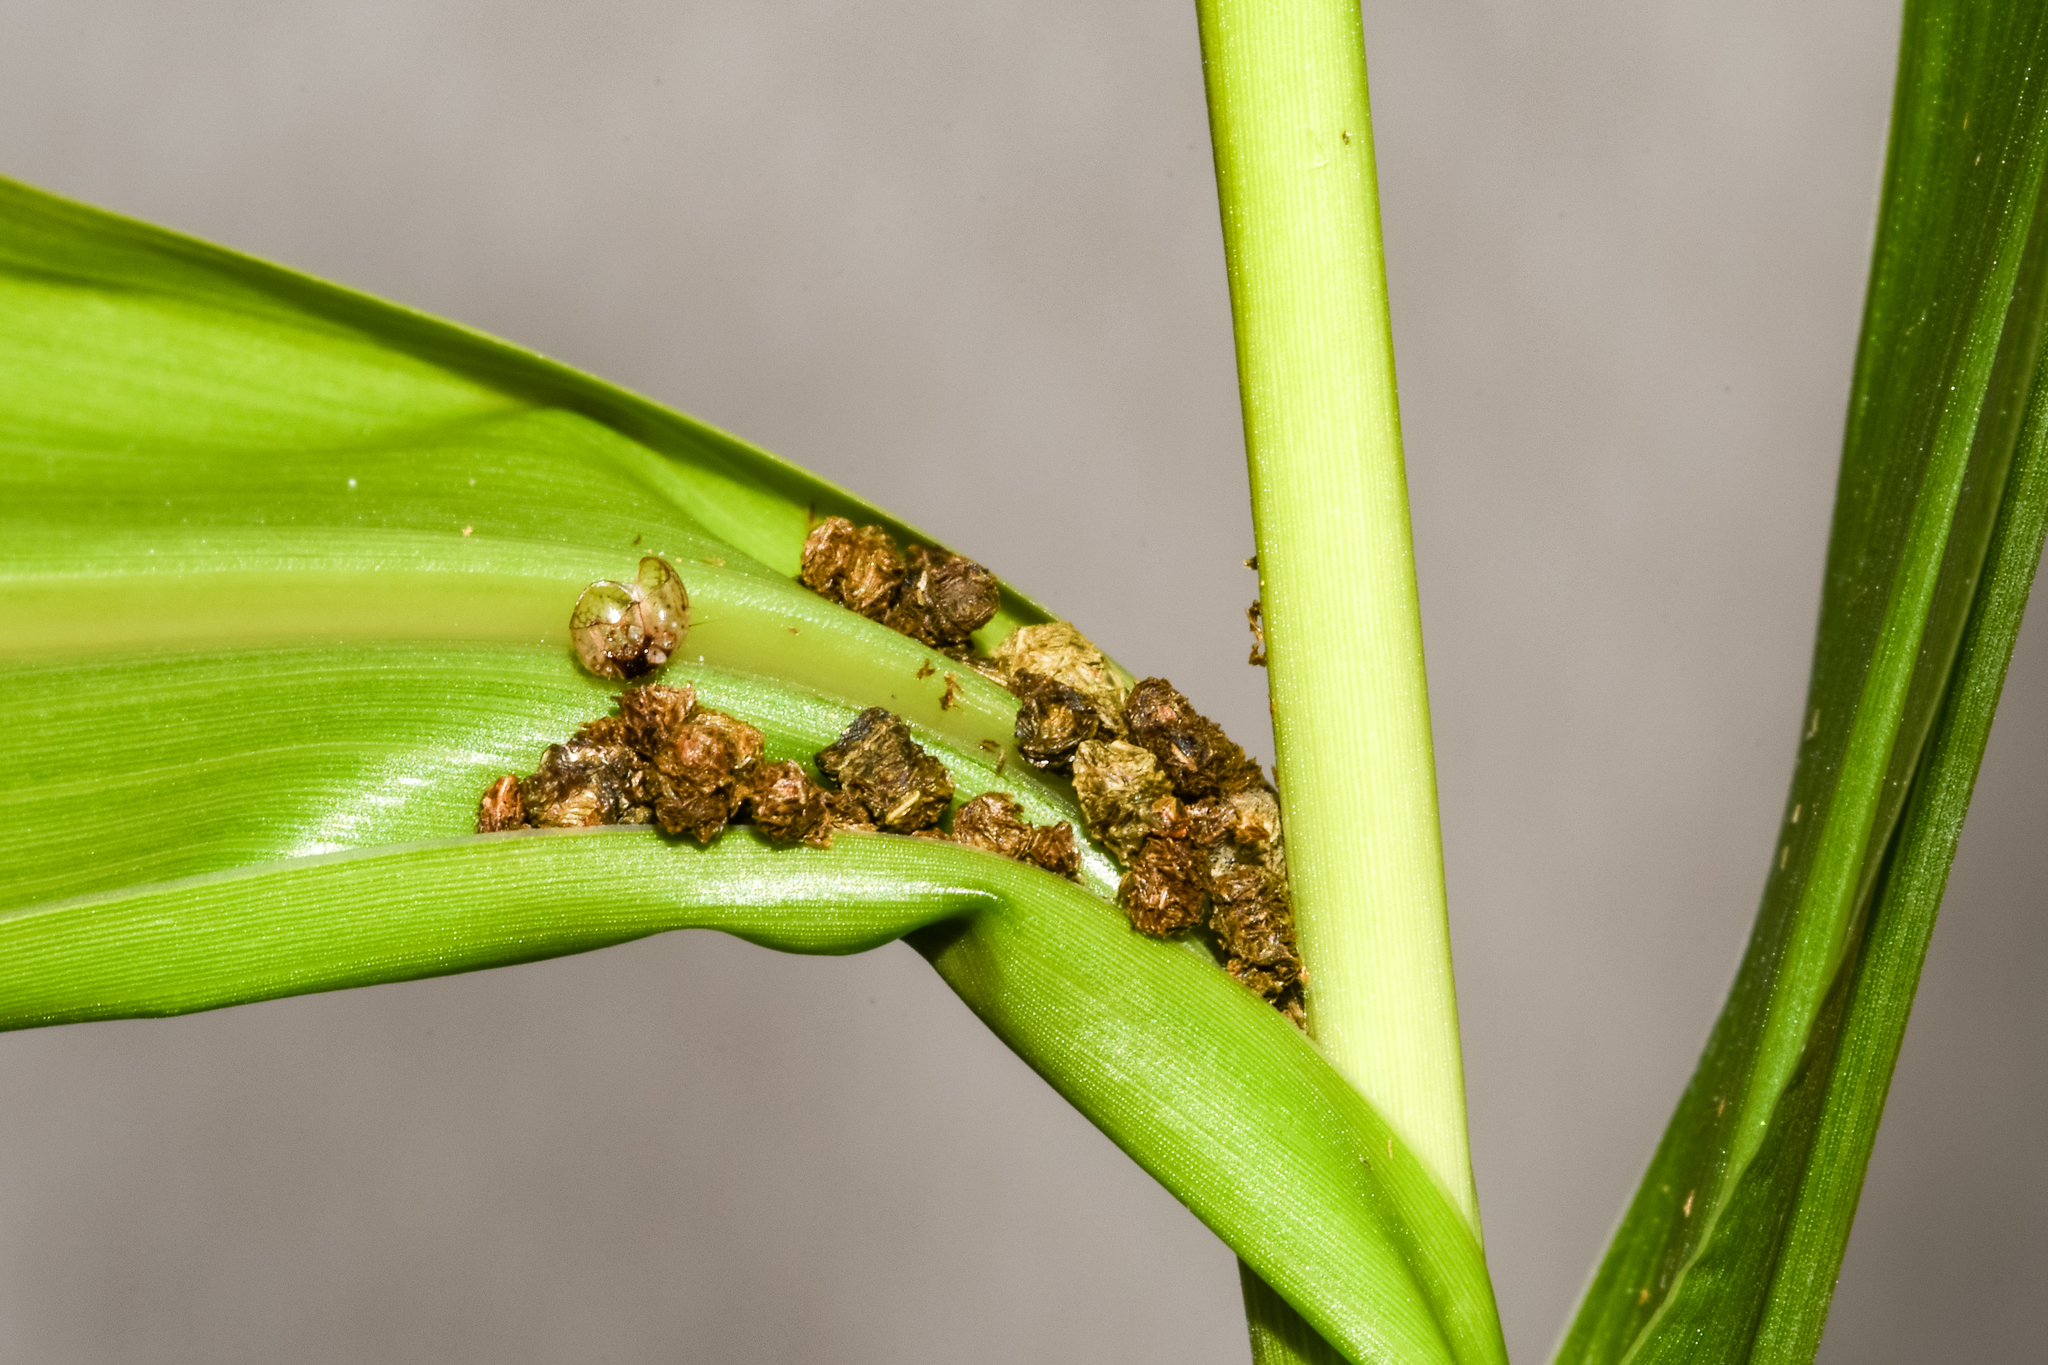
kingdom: Animalia
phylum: Arthropoda
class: Insecta
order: Lepidoptera
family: Noctuidae
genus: Mythimna
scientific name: Mythimna corax
